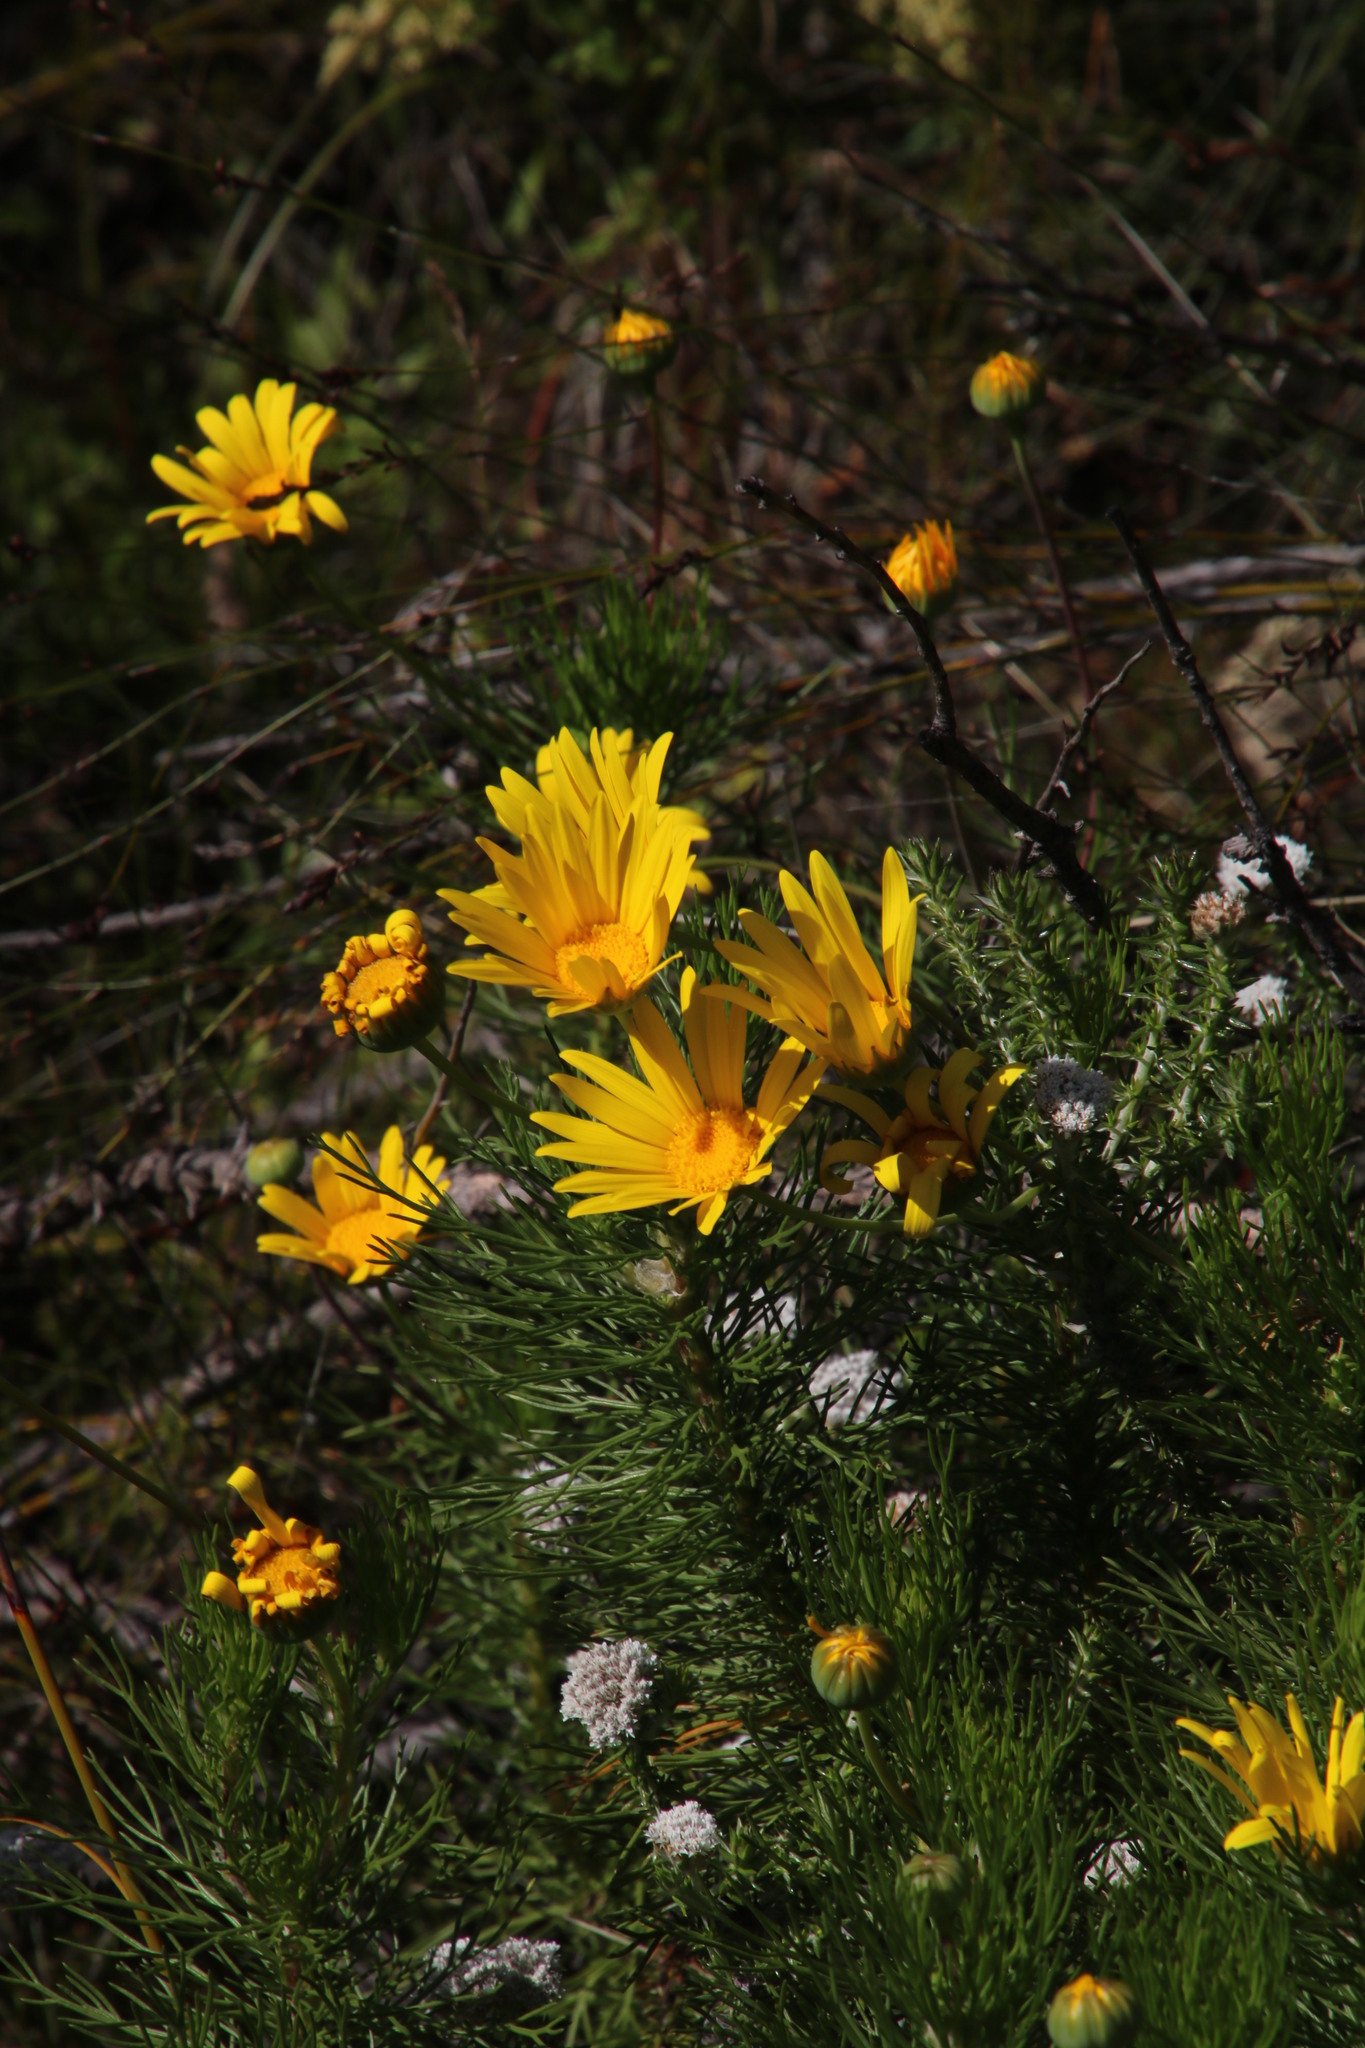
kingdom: Plantae
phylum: Tracheophyta
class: Magnoliopsida
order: Asterales
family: Asteraceae
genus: Euryops
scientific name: Euryops abrotanifolius
